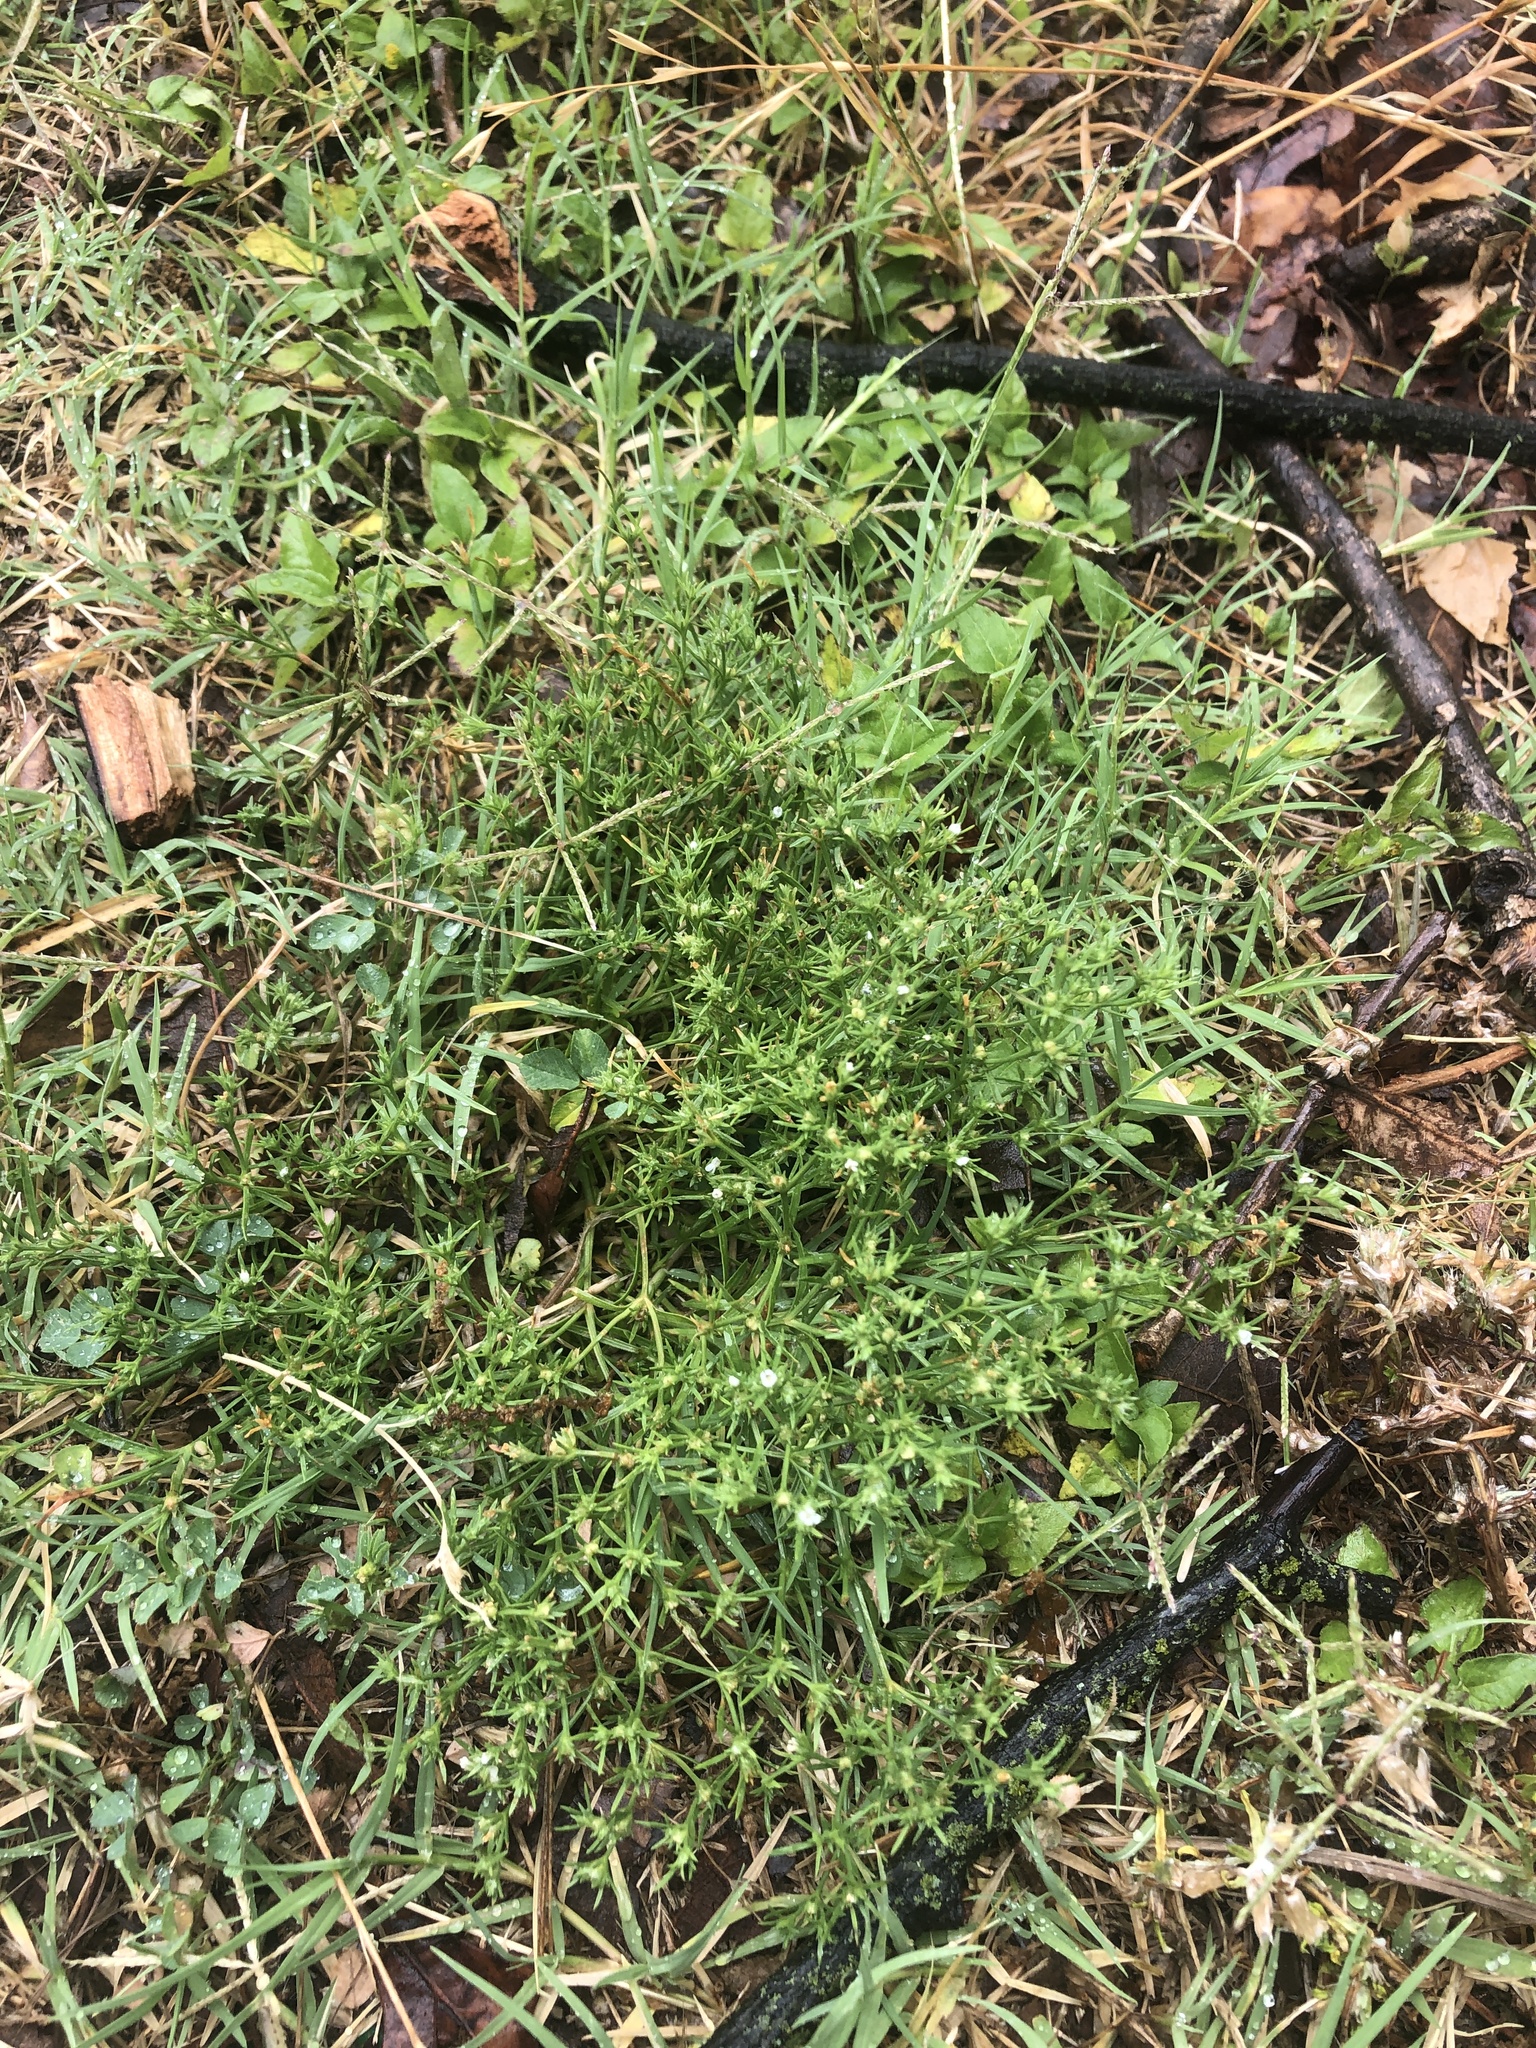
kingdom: Plantae
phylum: Tracheophyta
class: Magnoliopsida
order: Lamiales
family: Tetrachondraceae
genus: Polypremum
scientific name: Polypremum procumbens
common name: Juniper-leaf
